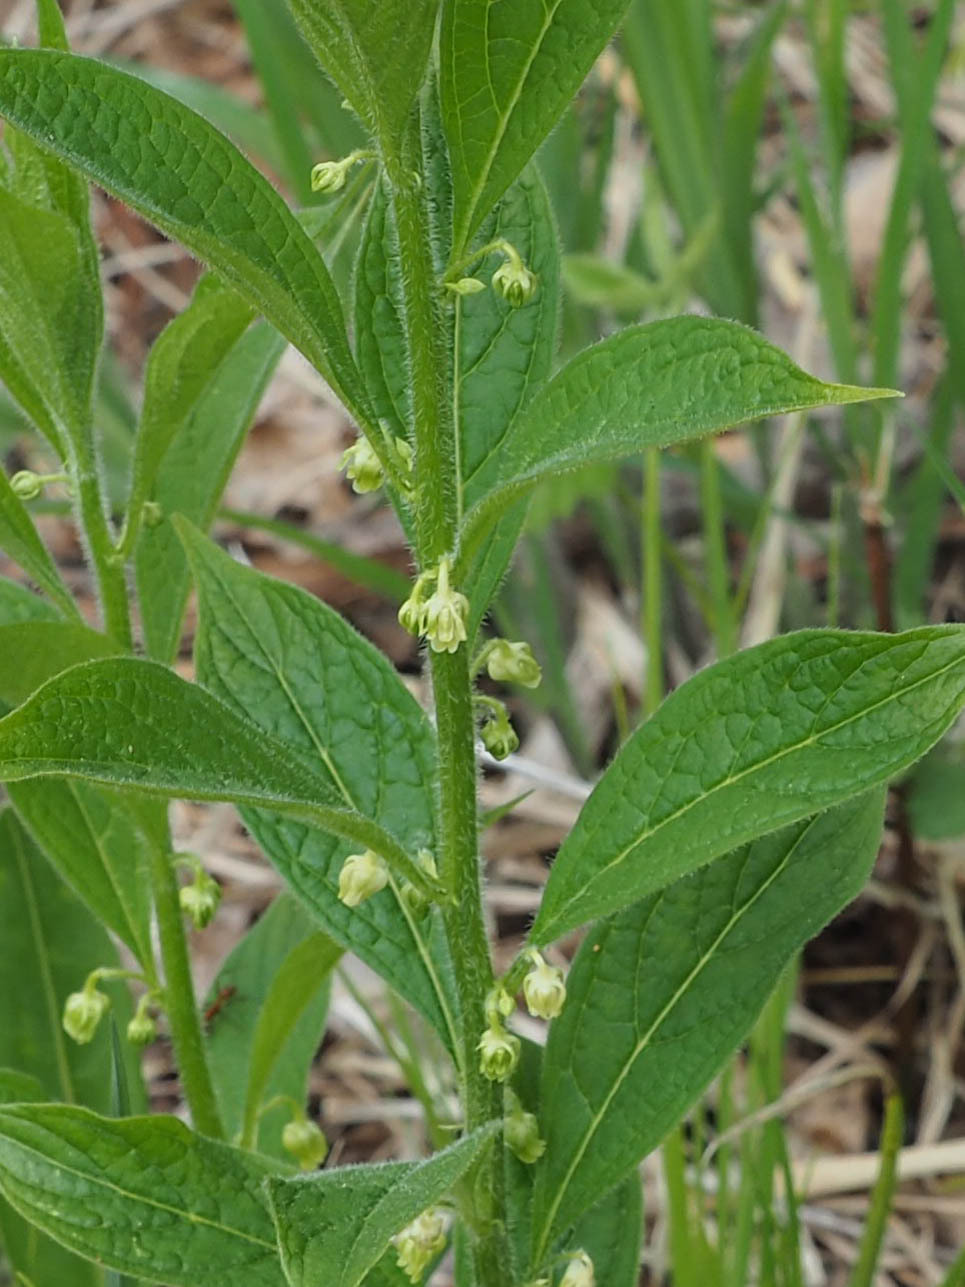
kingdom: Plantae
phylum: Tracheophyta
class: Magnoliopsida
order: Malpighiales
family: Violaceae
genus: Cubelium
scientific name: Cubelium concolor
